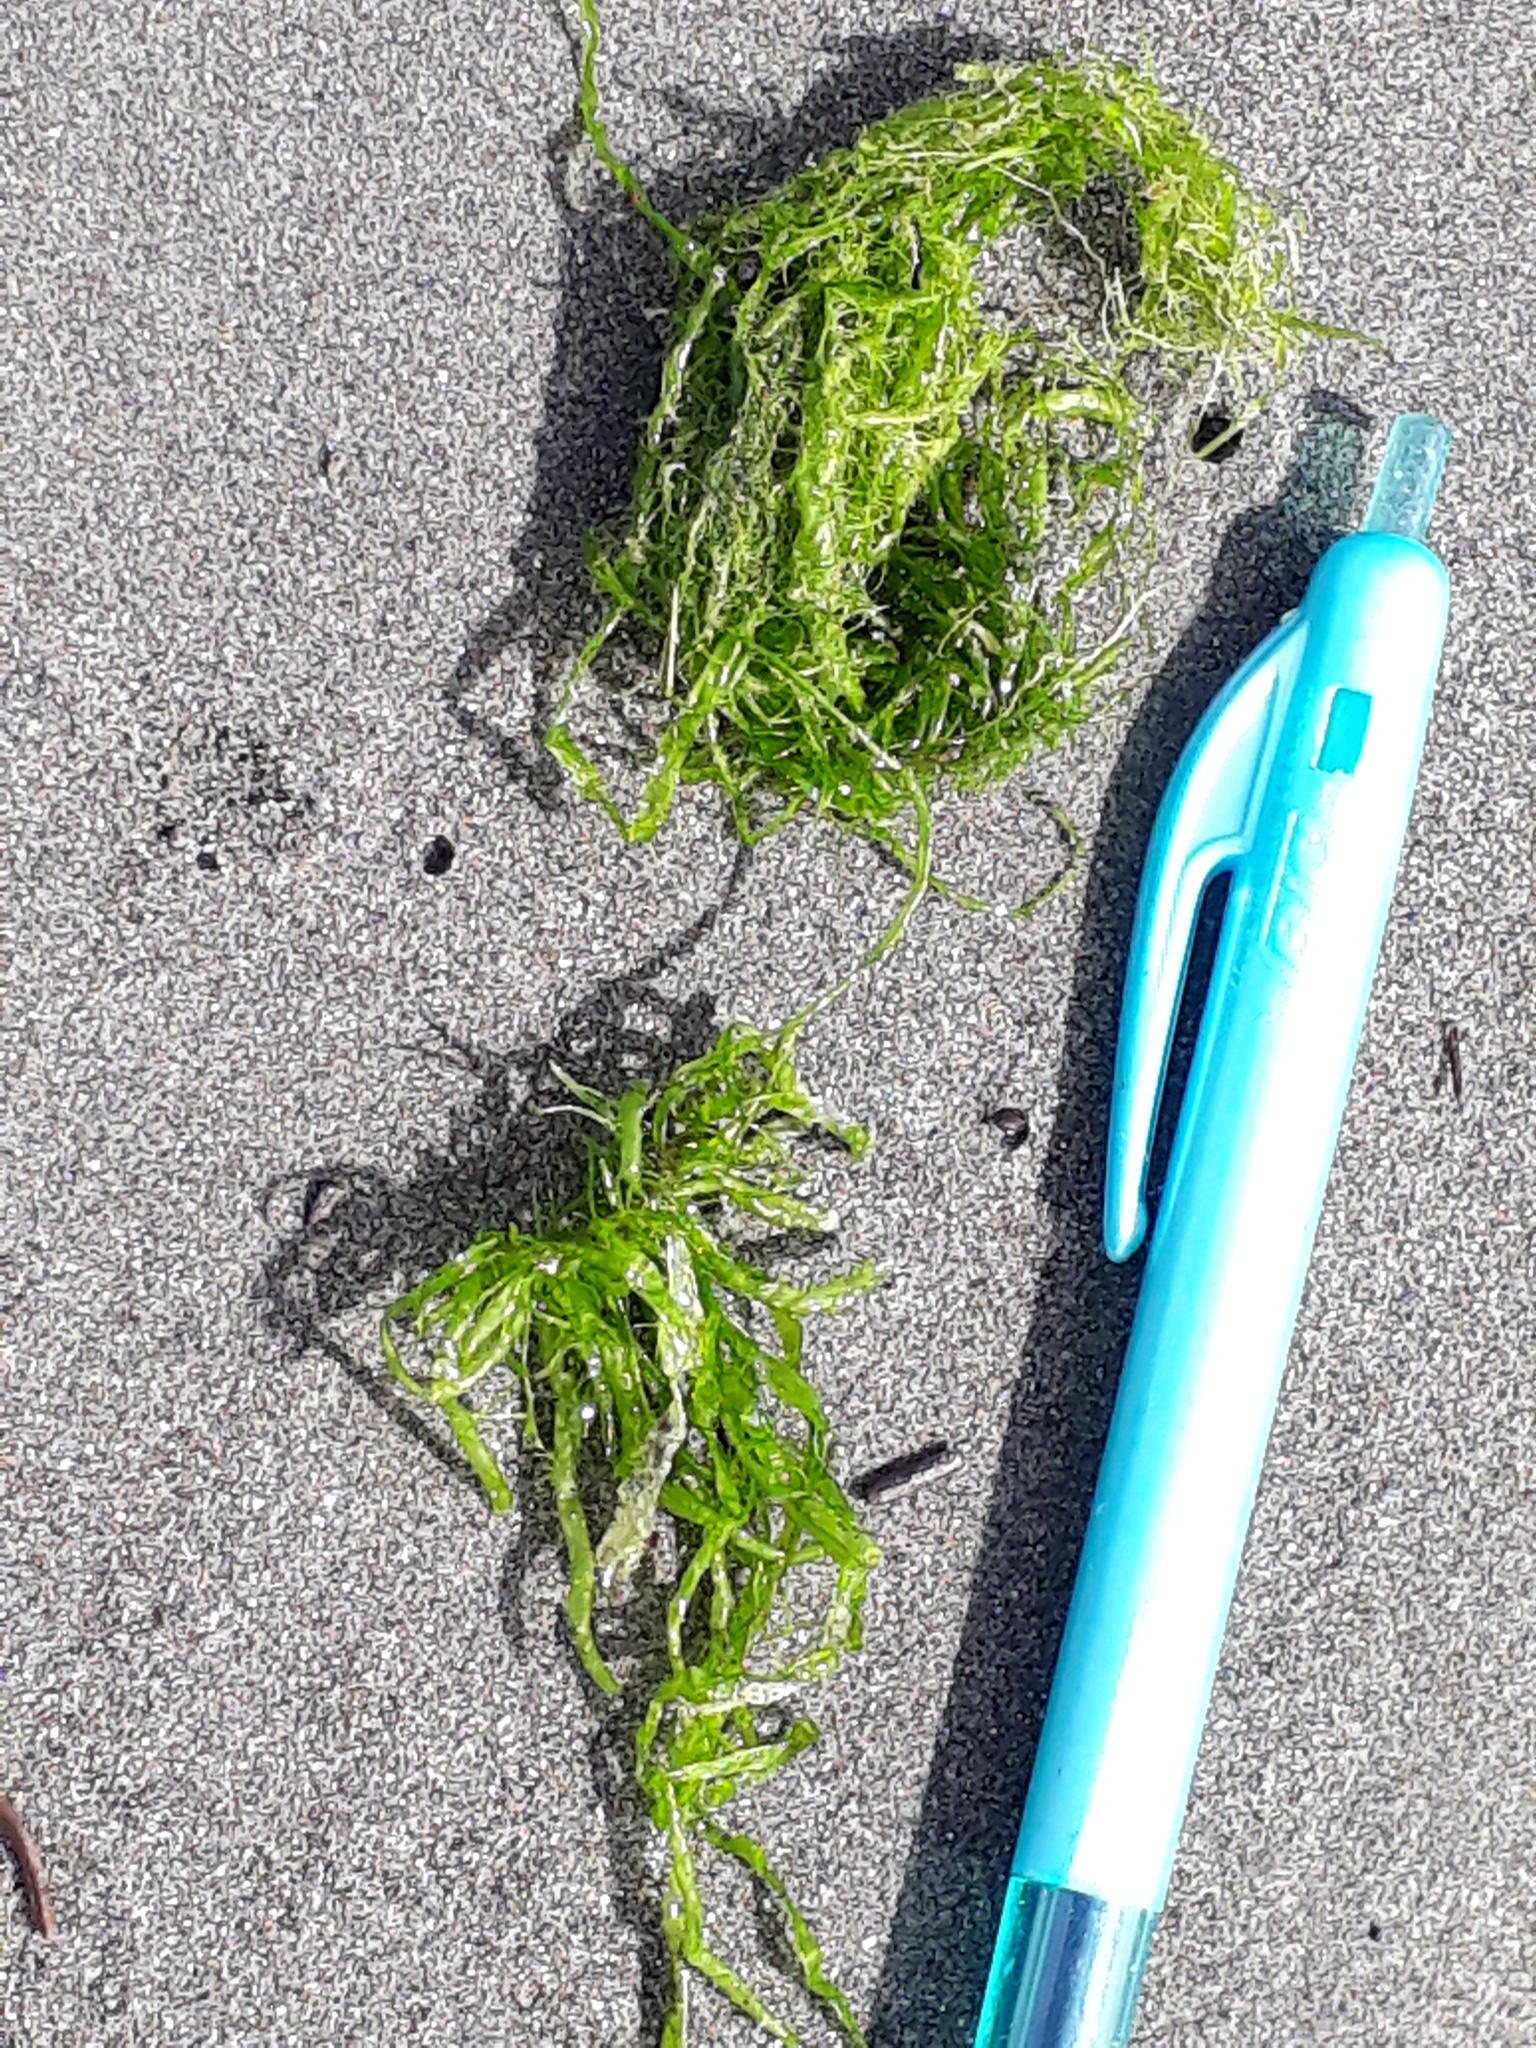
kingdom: Plantae
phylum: Chlorophyta
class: Ulvophyceae
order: Ulvales
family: Ulvaceae
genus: Ulva
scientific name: Ulva intestinalis
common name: Gut weed
